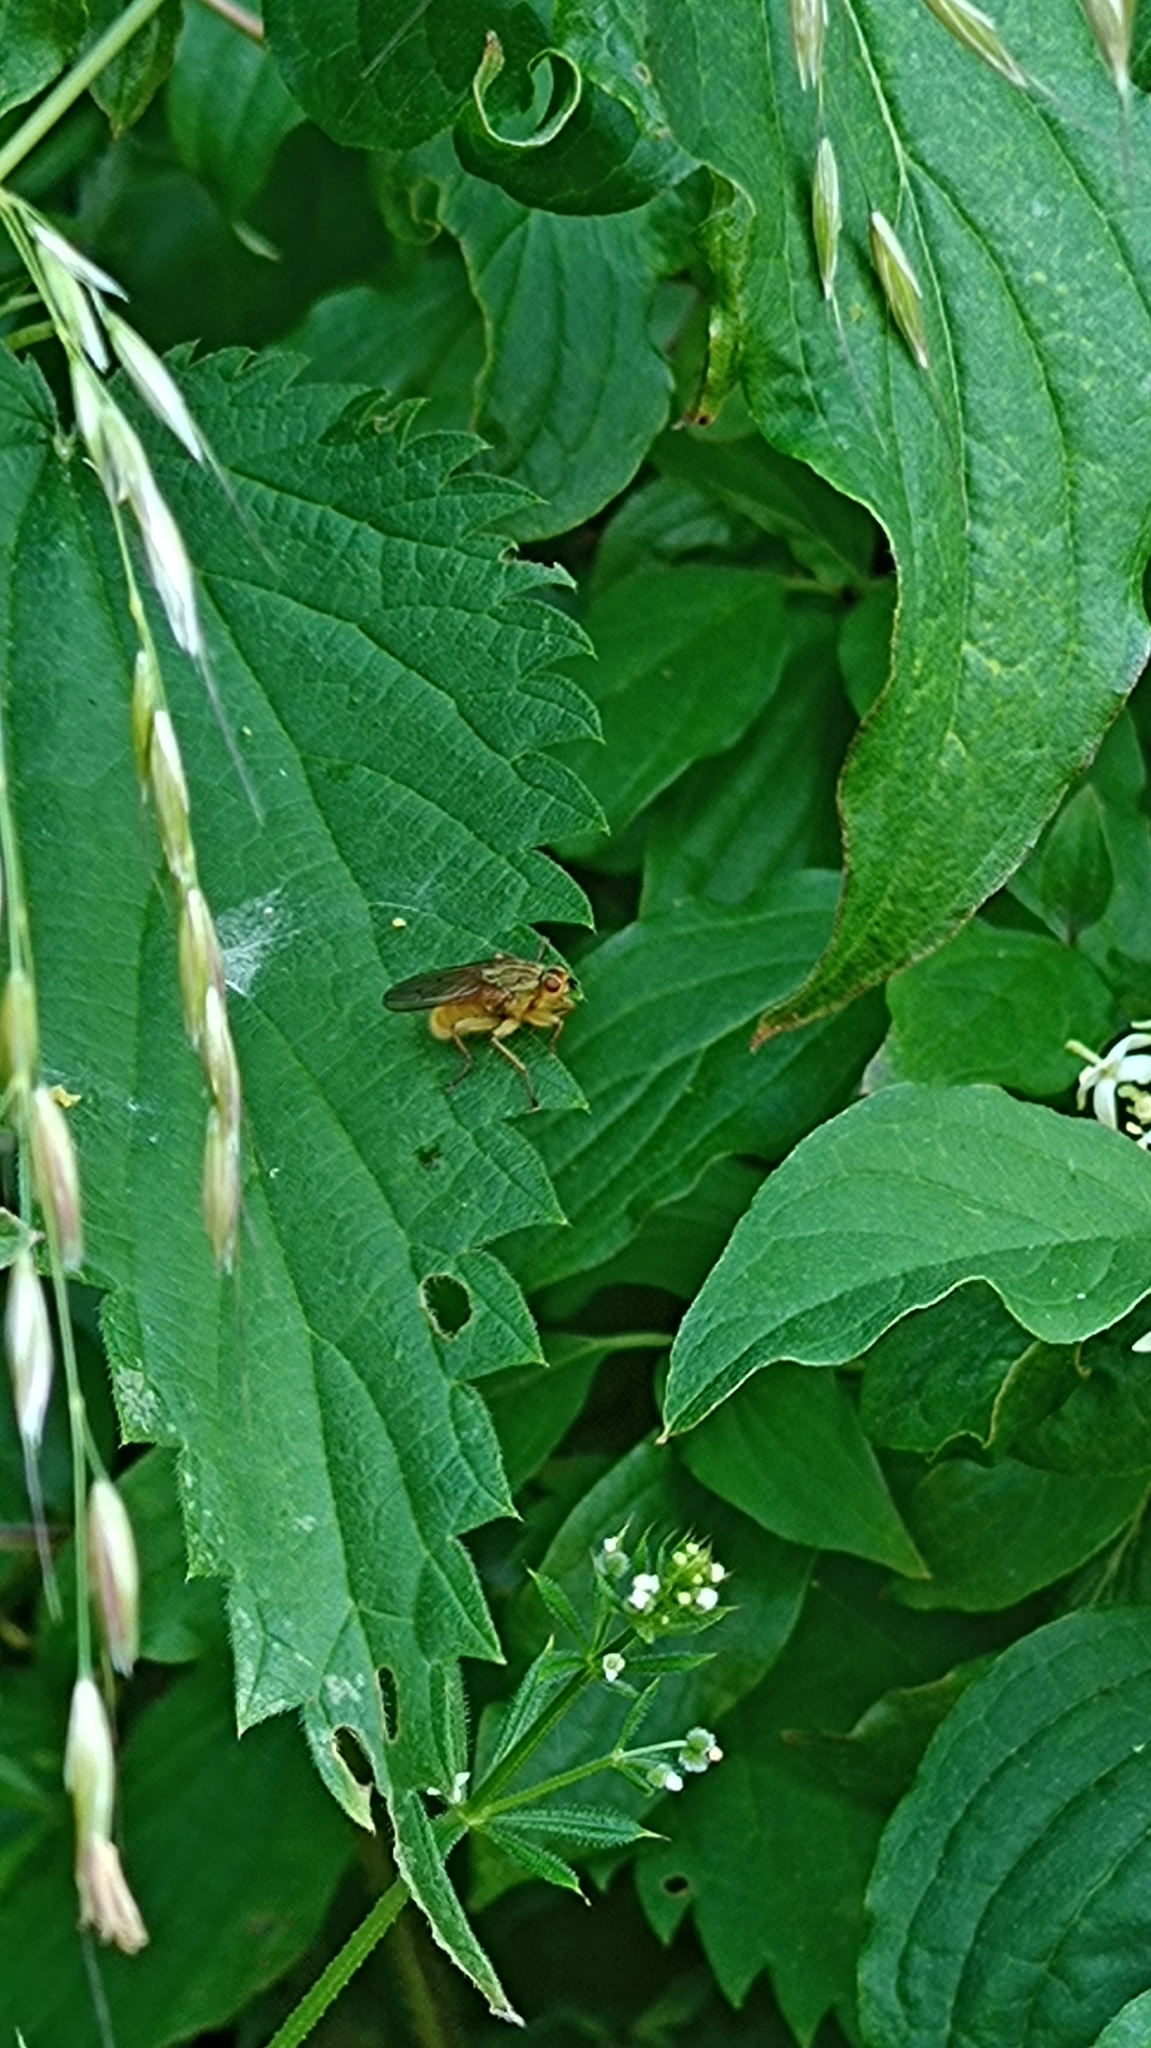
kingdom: Animalia
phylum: Arthropoda
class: Insecta
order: Diptera
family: Scathophagidae
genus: Scathophaga
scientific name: Scathophaga stercoraria
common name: Yellow dung fly
